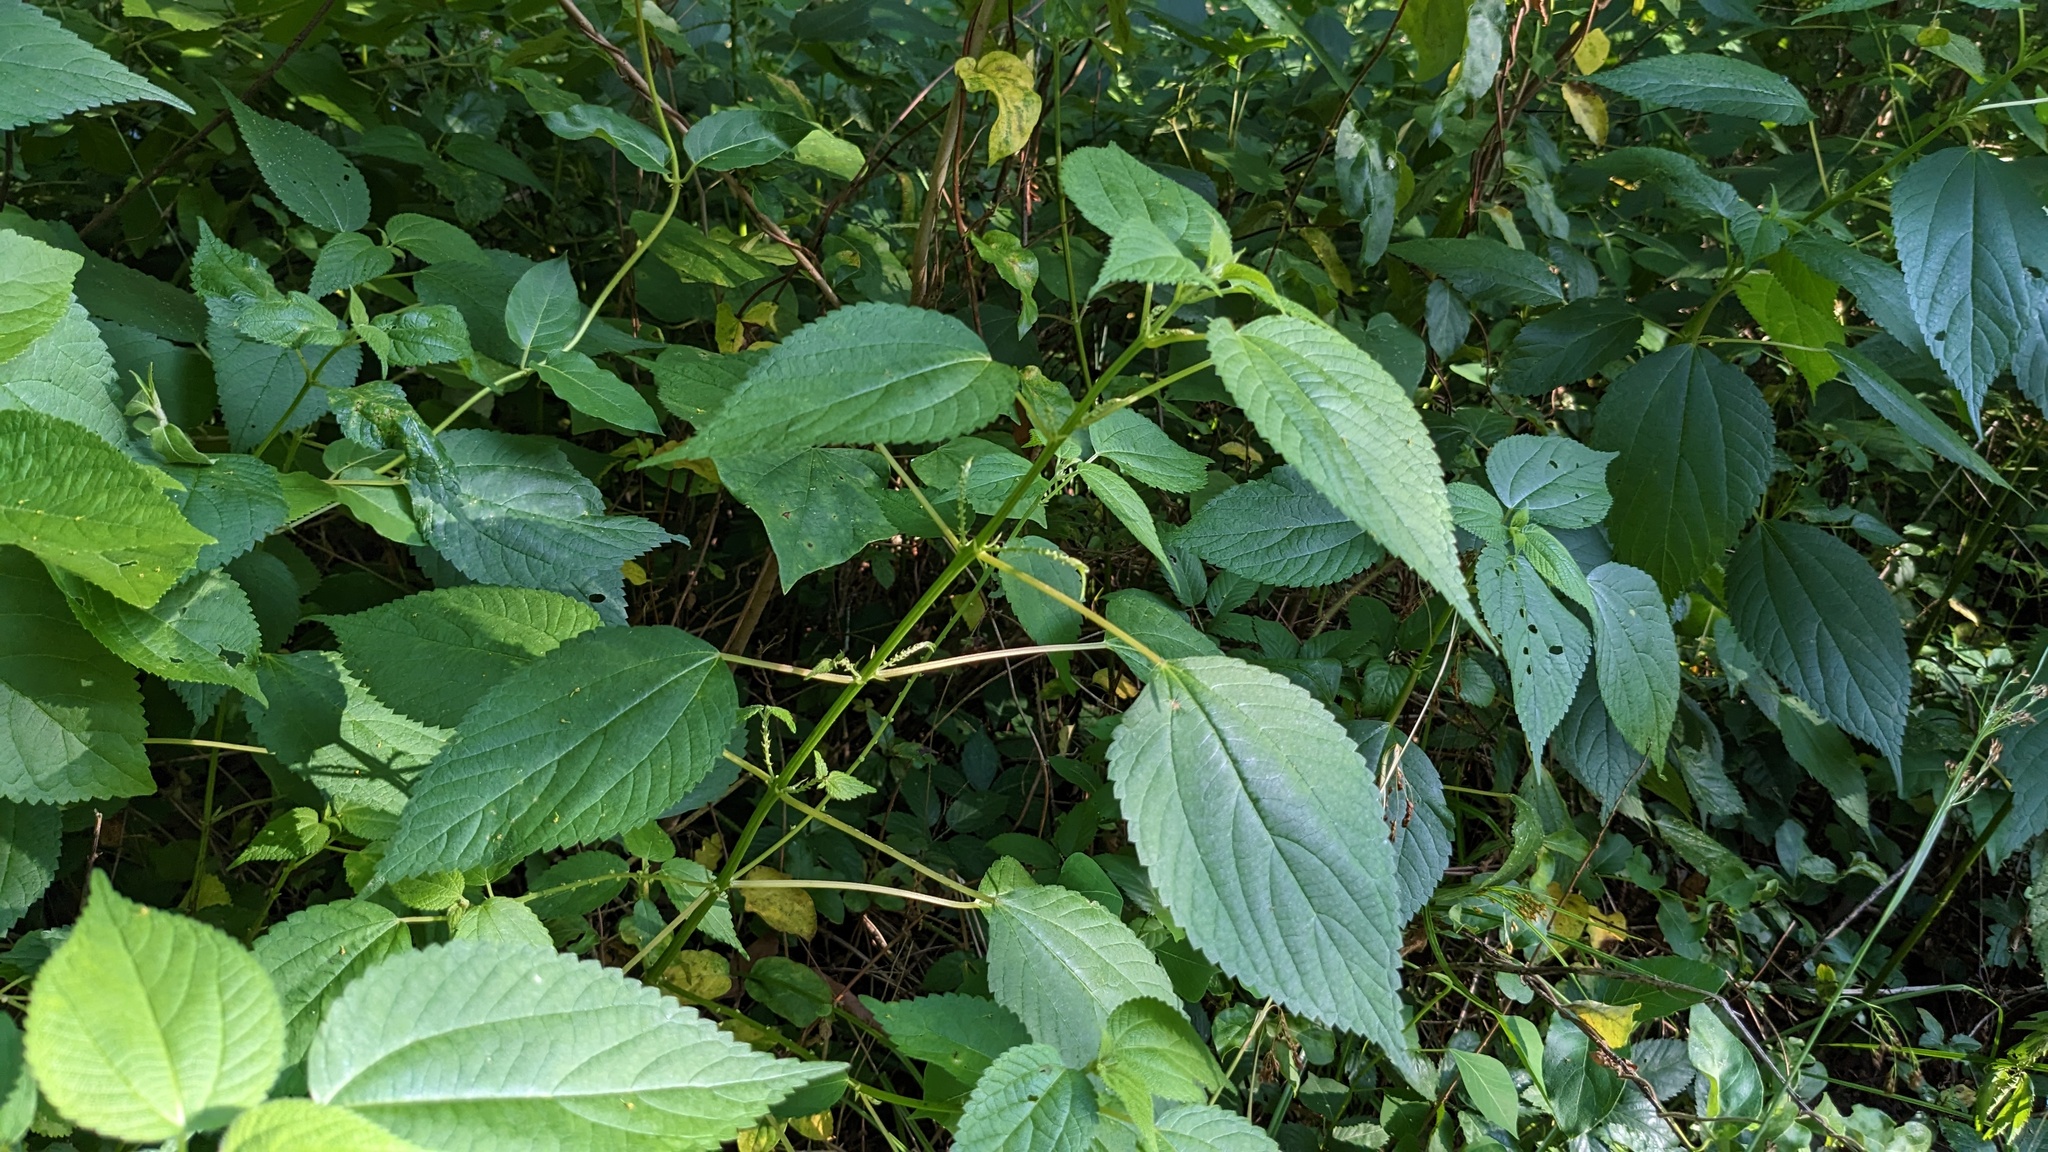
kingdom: Plantae
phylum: Tracheophyta
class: Magnoliopsida
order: Rosales
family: Urticaceae
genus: Boehmeria
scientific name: Boehmeria cylindrica
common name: Bog-hemp
